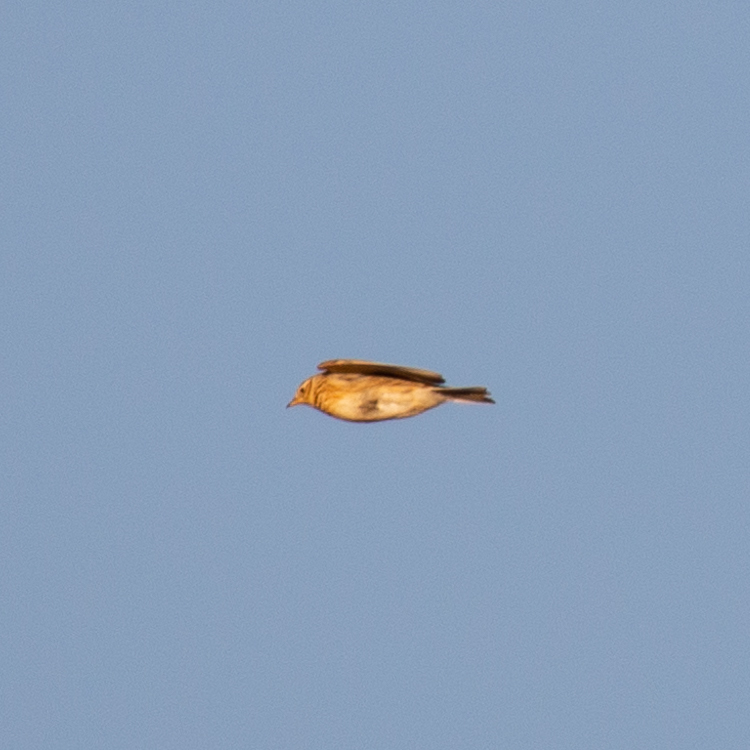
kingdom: Animalia
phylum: Chordata
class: Aves
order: Passeriformes
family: Alaudidae
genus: Alauda
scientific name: Alauda arvensis
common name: Eurasian skylark
